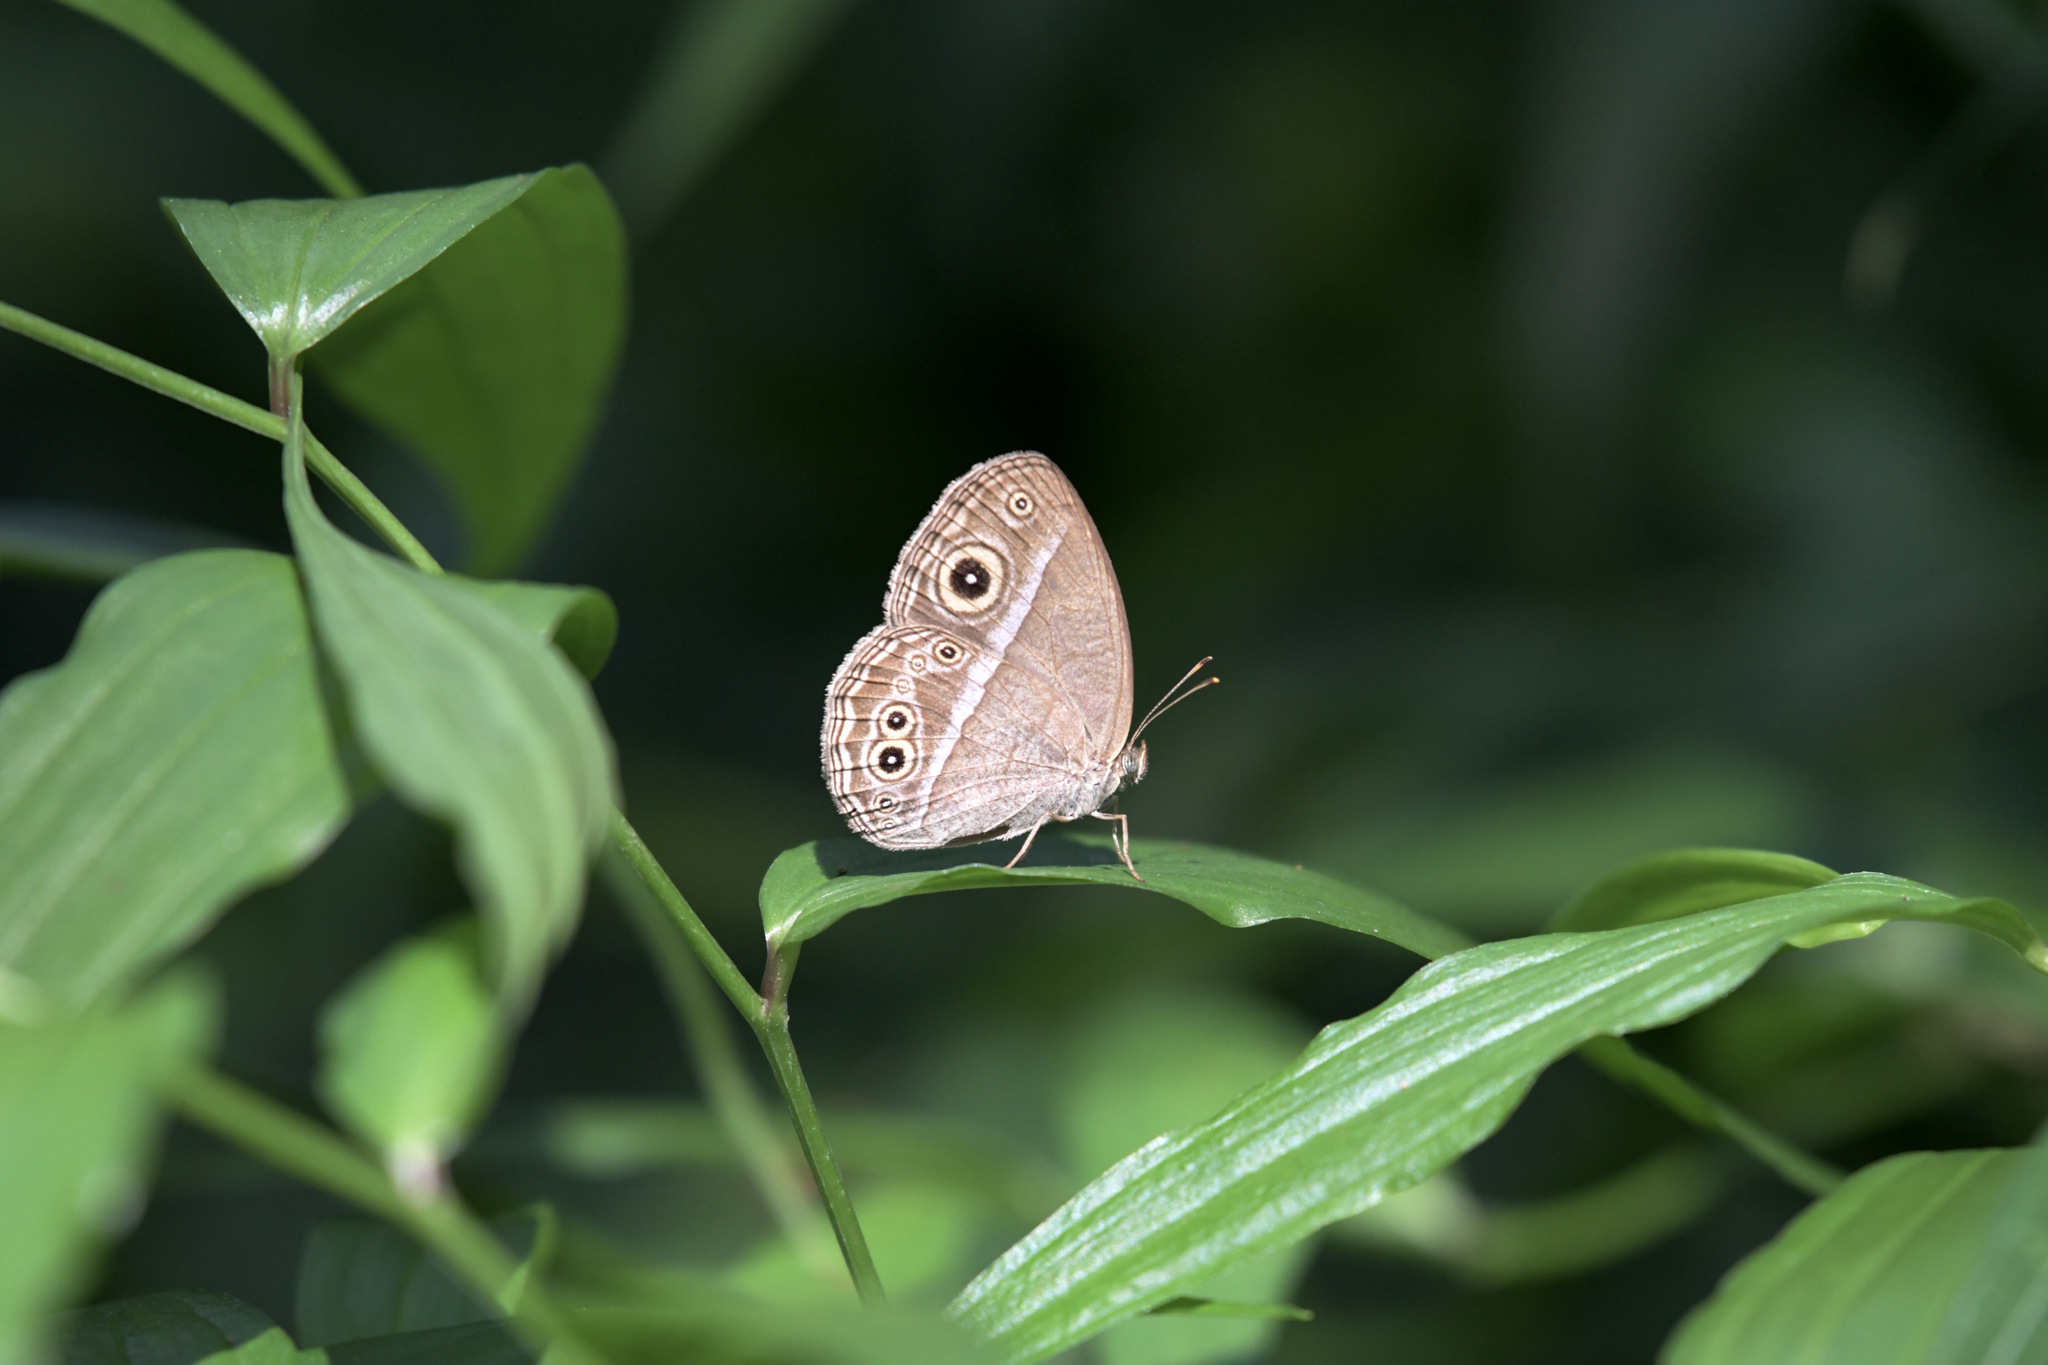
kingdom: Animalia
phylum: Arthropoda
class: Insecta
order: Lepidoptera
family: Nymphalidae
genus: Mycalesis
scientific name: Mycalesis sangaica
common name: Painted bushbrown
